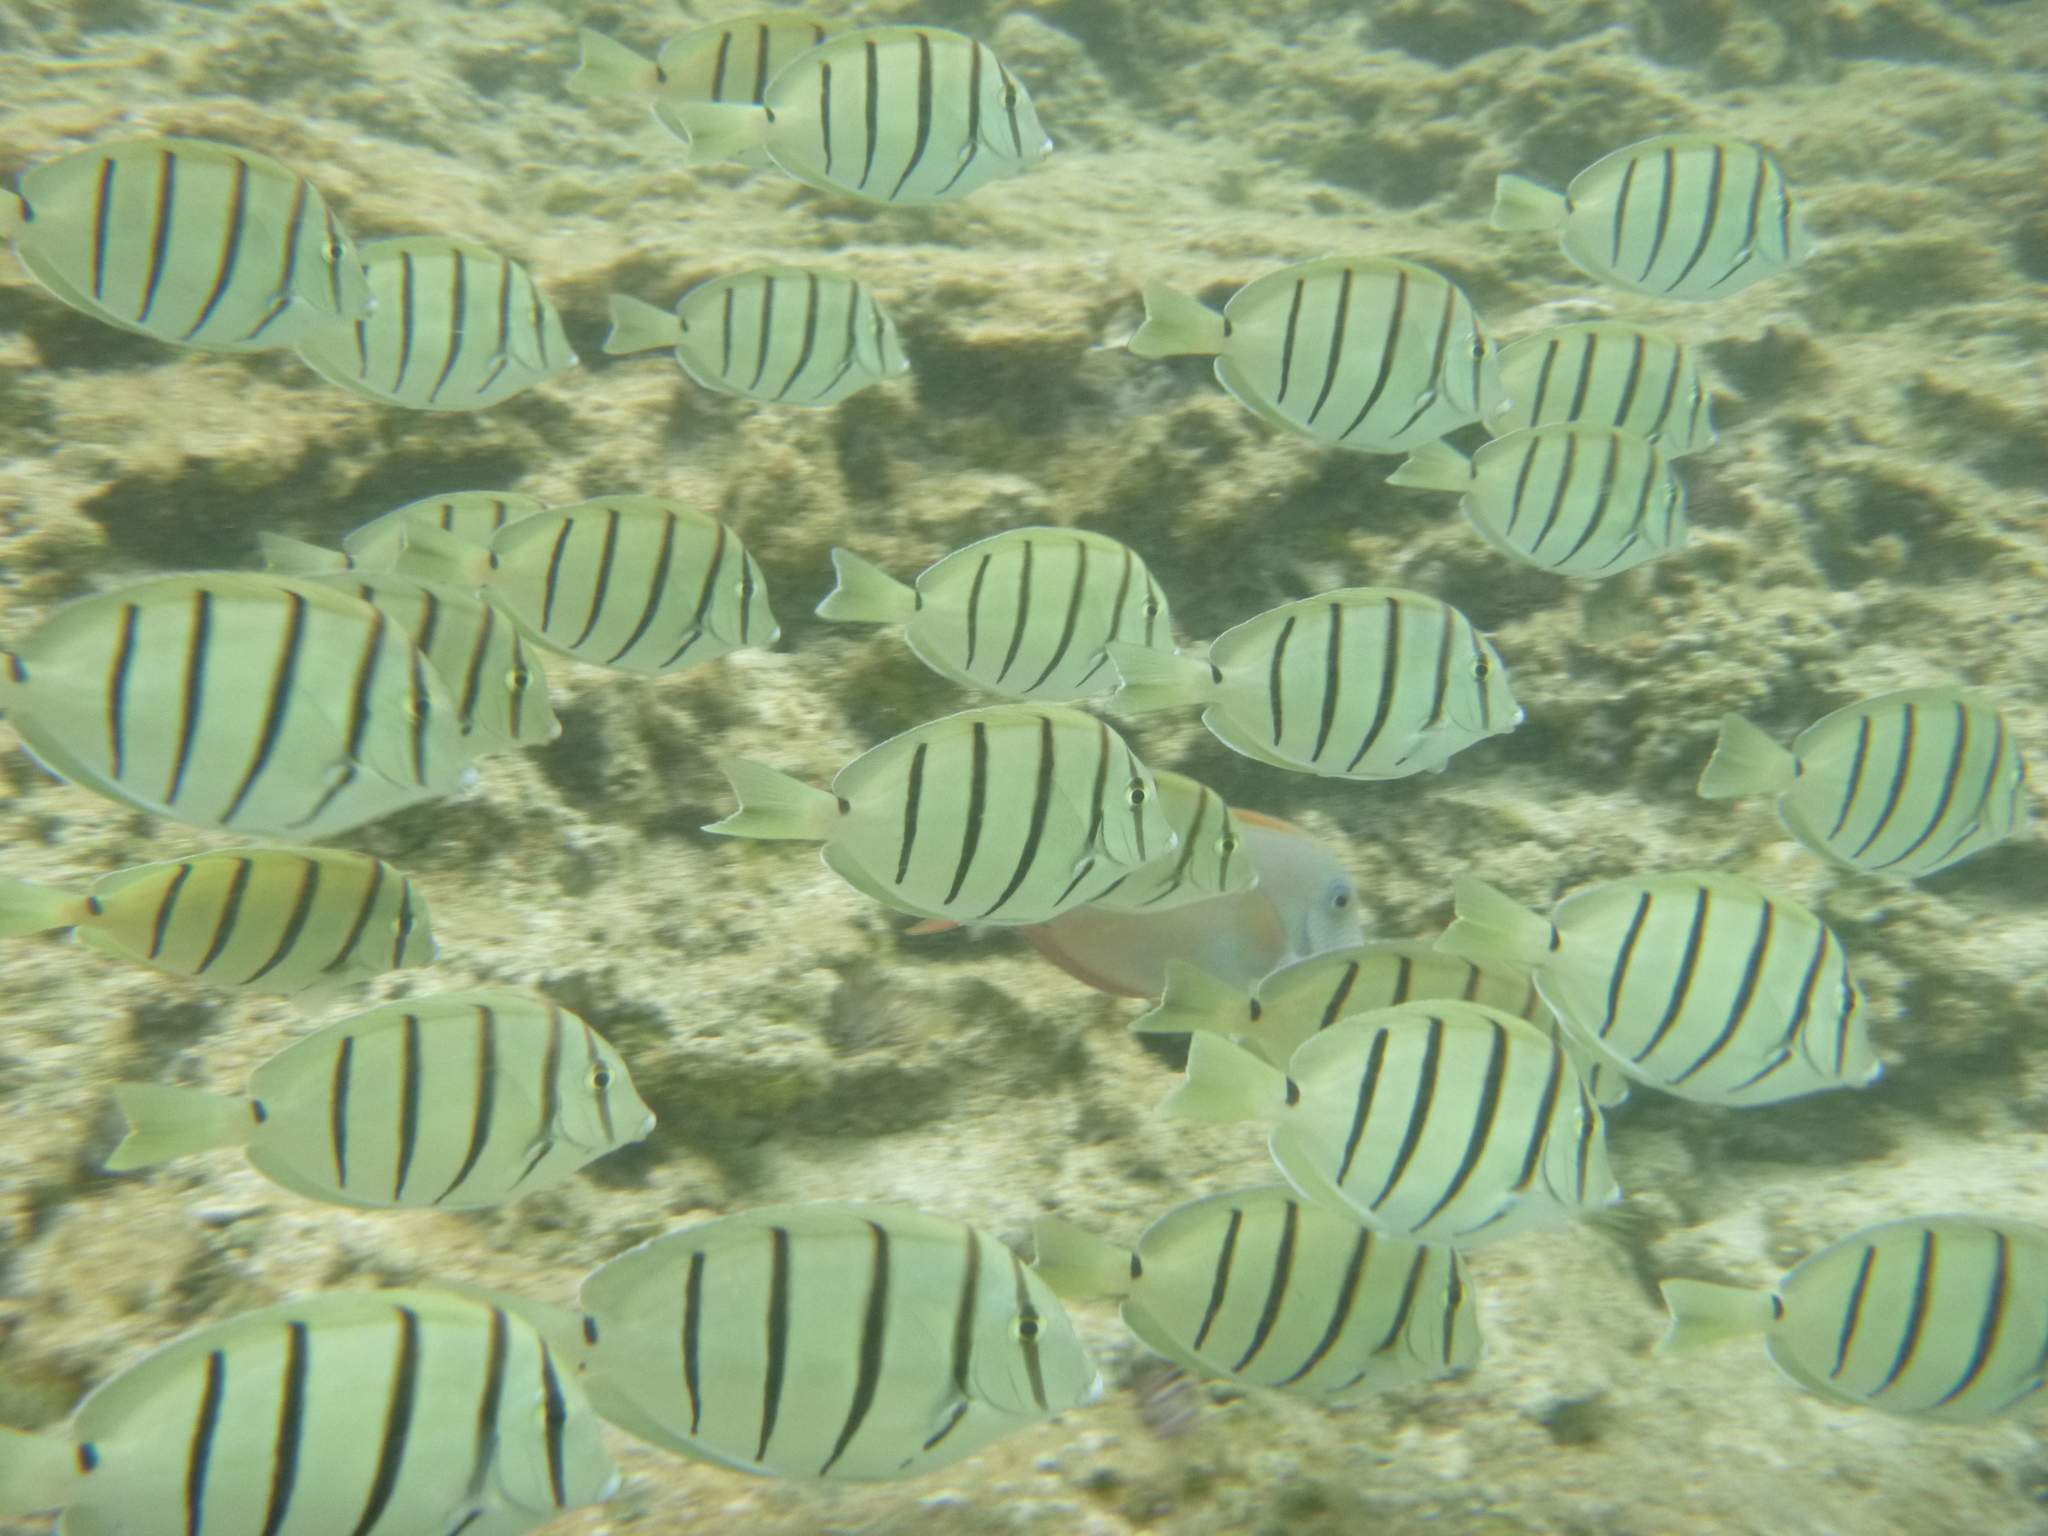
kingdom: Animalia
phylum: Chordata
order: Perciformes
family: Acanthuridae
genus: Acanthurus
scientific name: Acanthurus triostegus
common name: Convict surgeonfish
